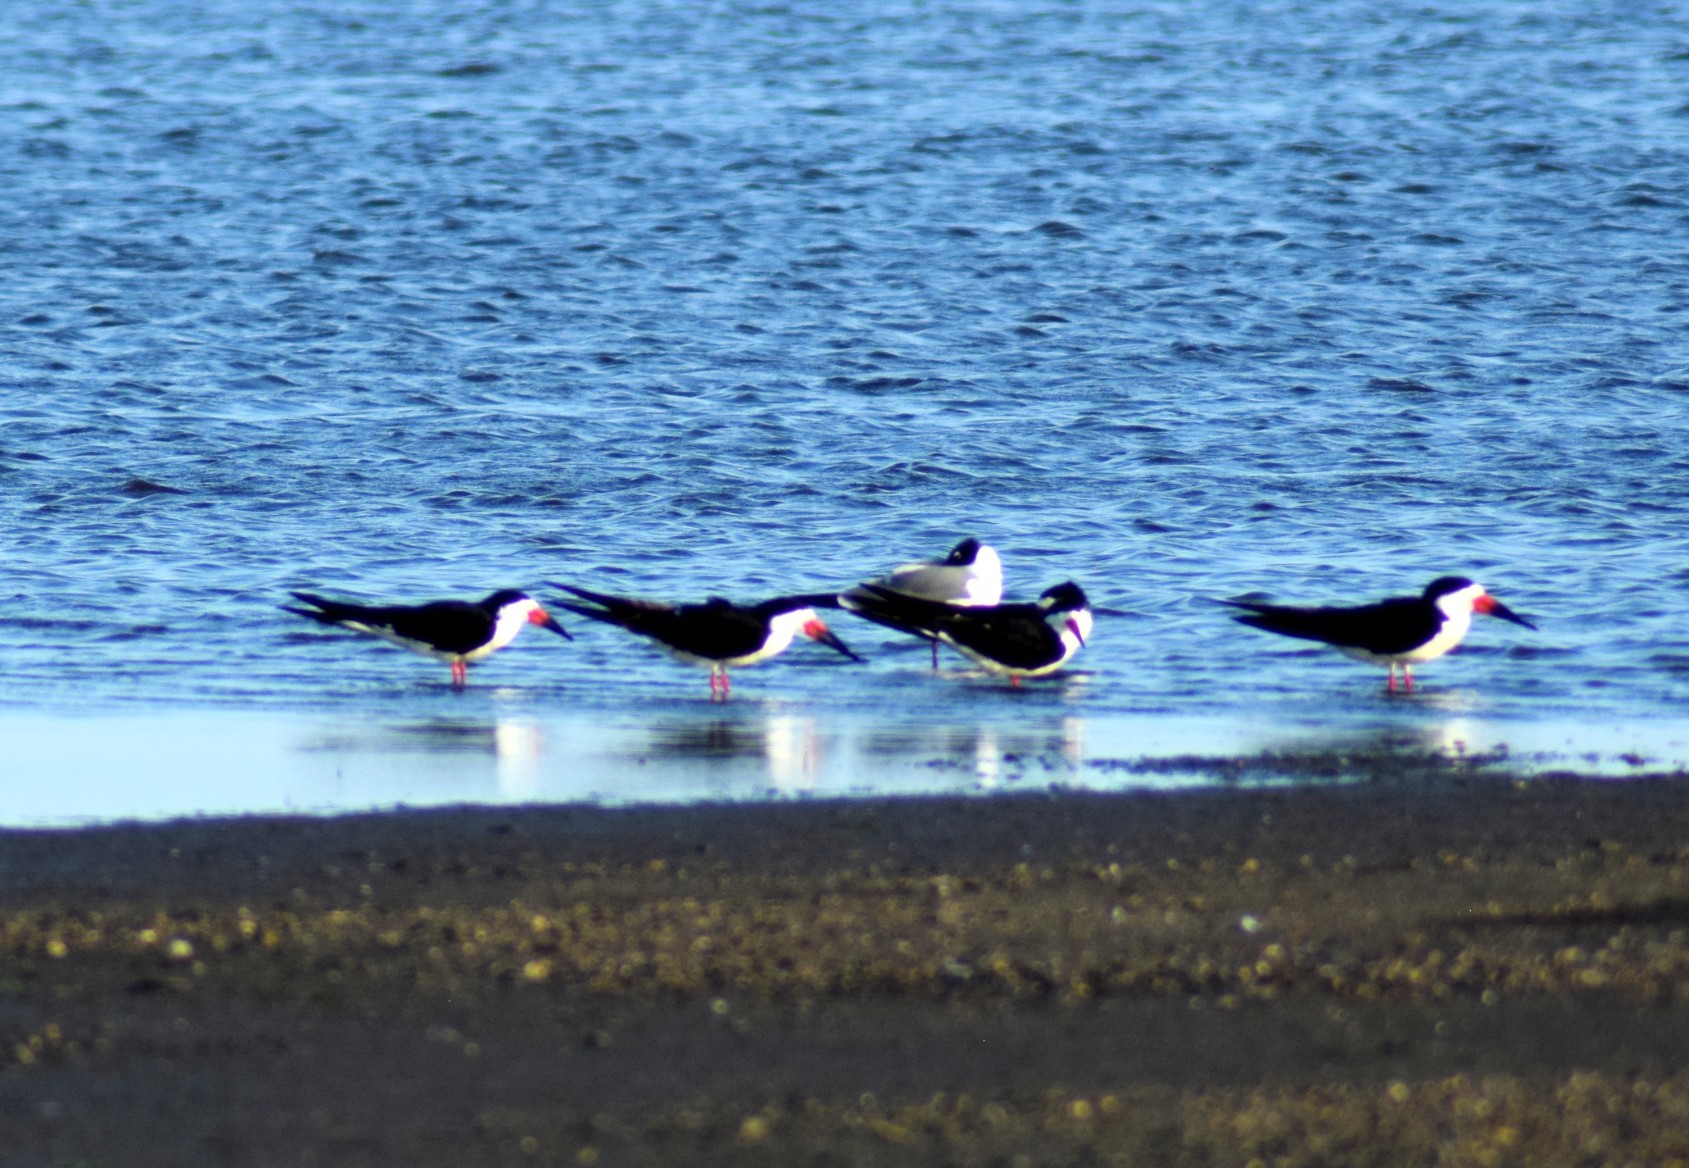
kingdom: Animalia
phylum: Chordata
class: Aves
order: Charadriiformes
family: Laridae
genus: Rynchops
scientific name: Rynchops niger
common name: Black skimmer
